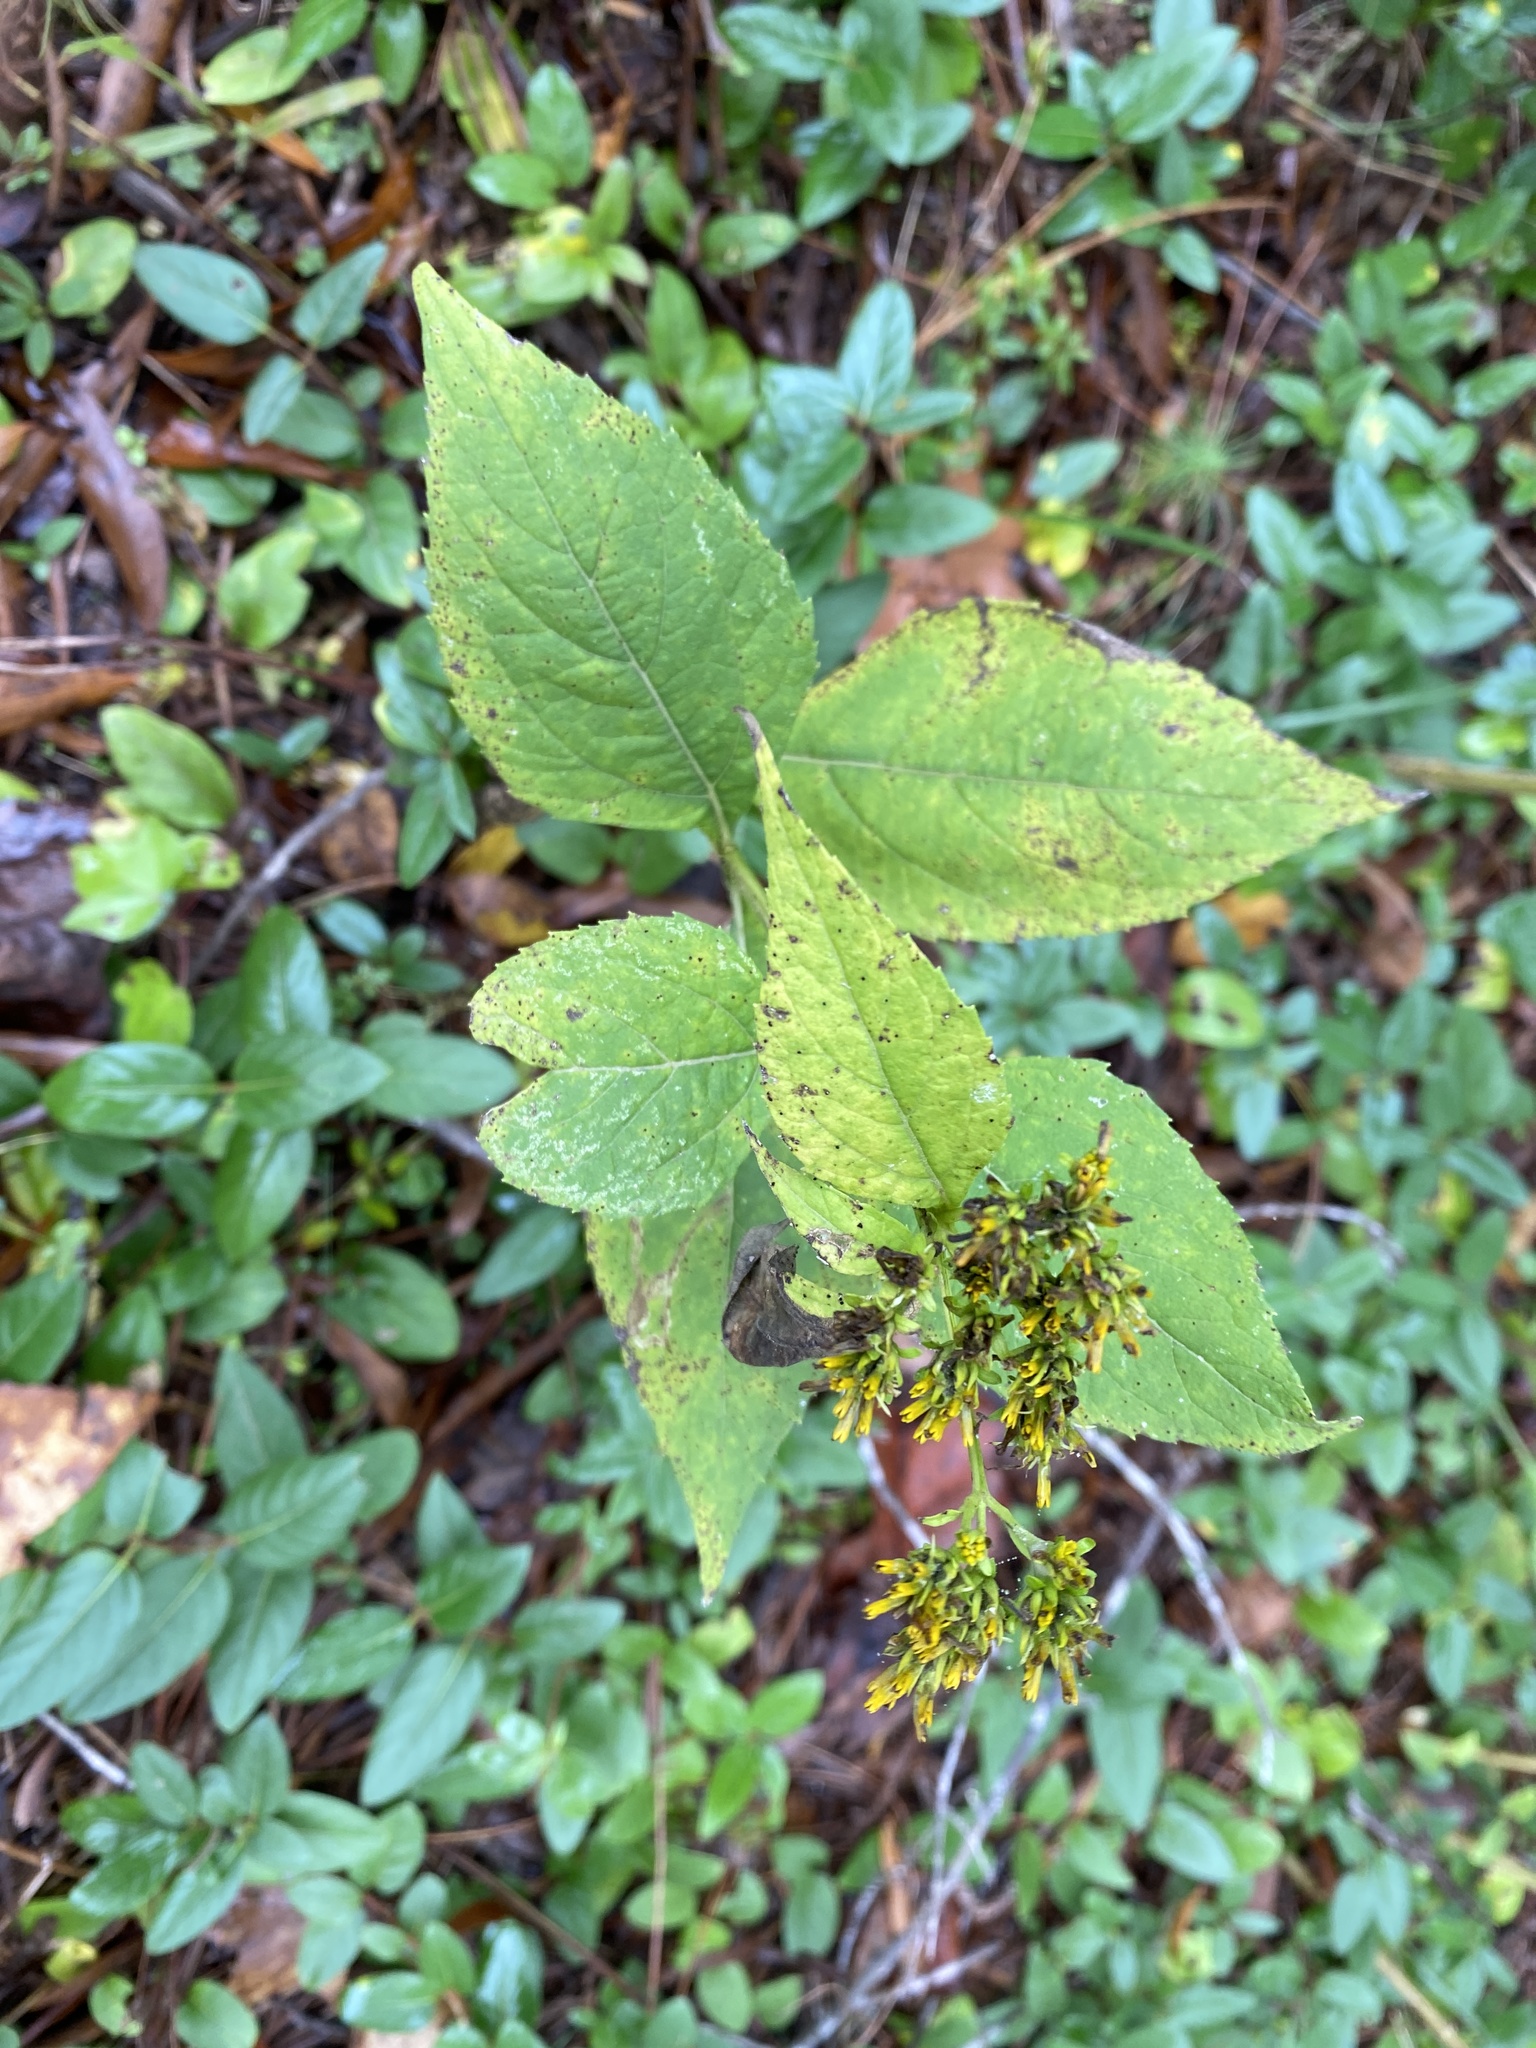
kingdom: Plantae
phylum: Tracheophyta
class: Magnoliopsida
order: Asterales
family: Asteraceae
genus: Verbesina
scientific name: Verbesina occidentalis
